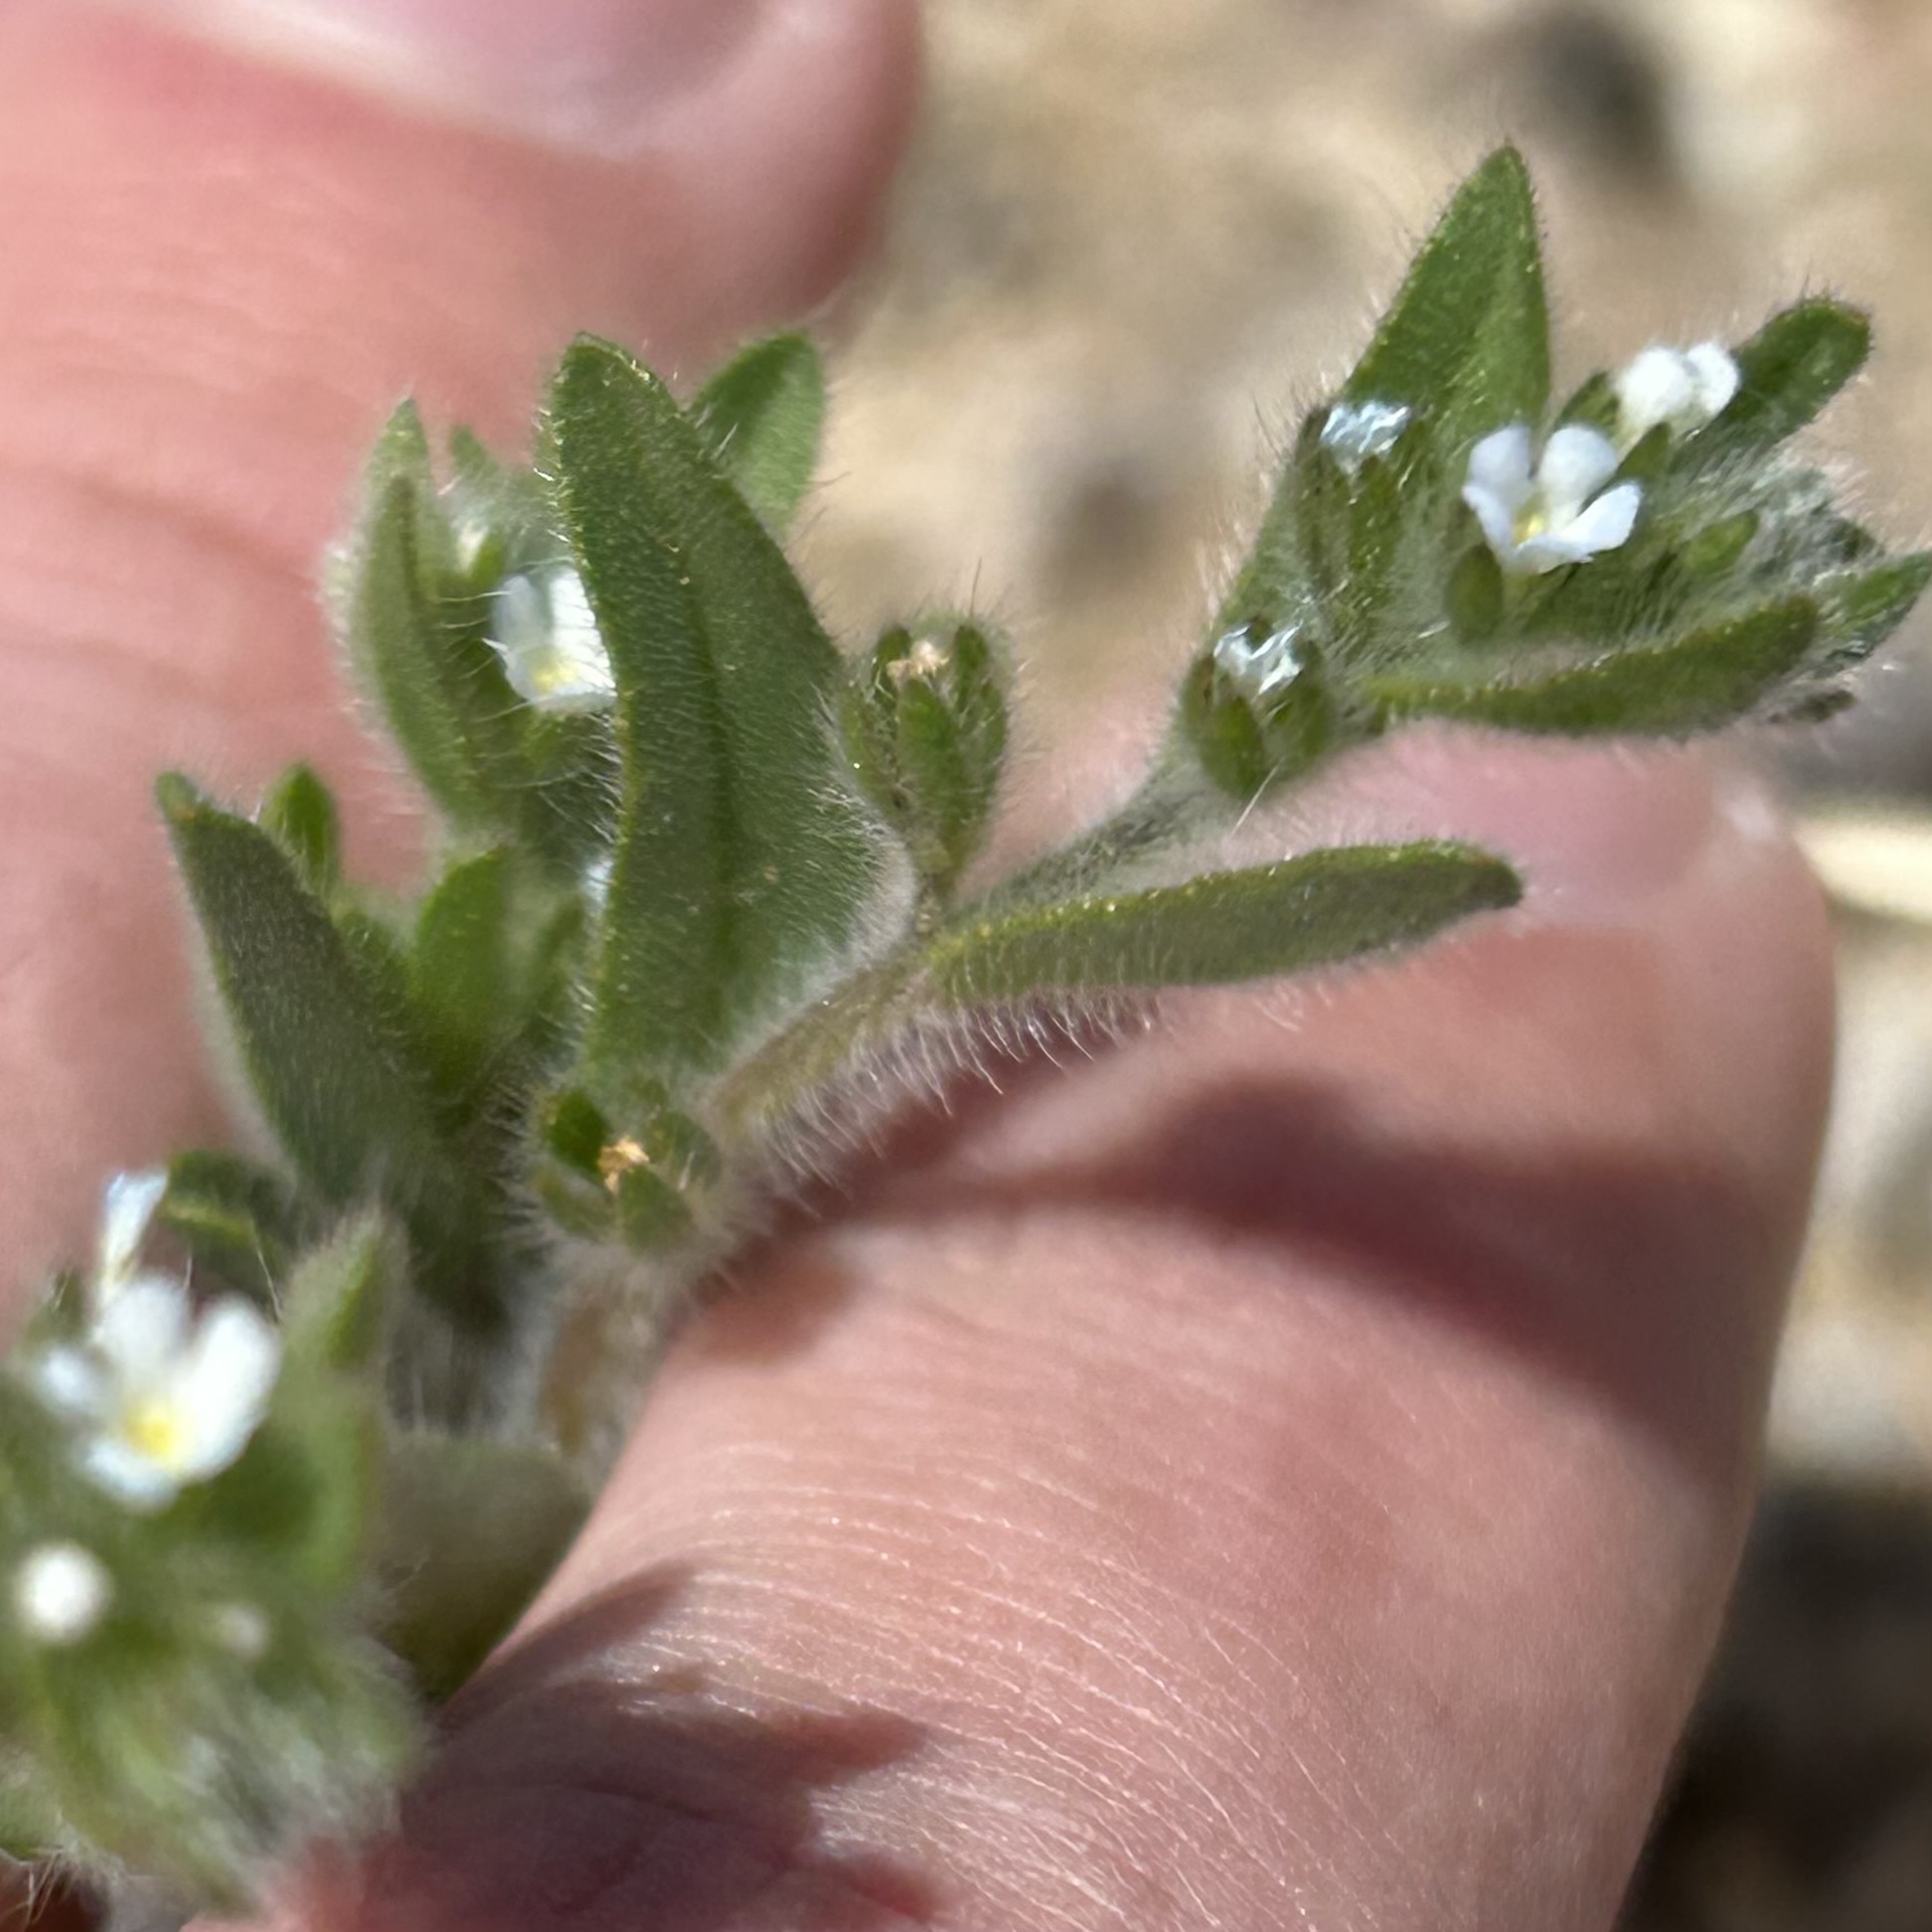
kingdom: Plantae
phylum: Tracheophyta
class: Magnoliopsida
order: Boraginales
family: Boraginaceae
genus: Lappula
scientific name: Lappula occidentalis
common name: Western stickseed
